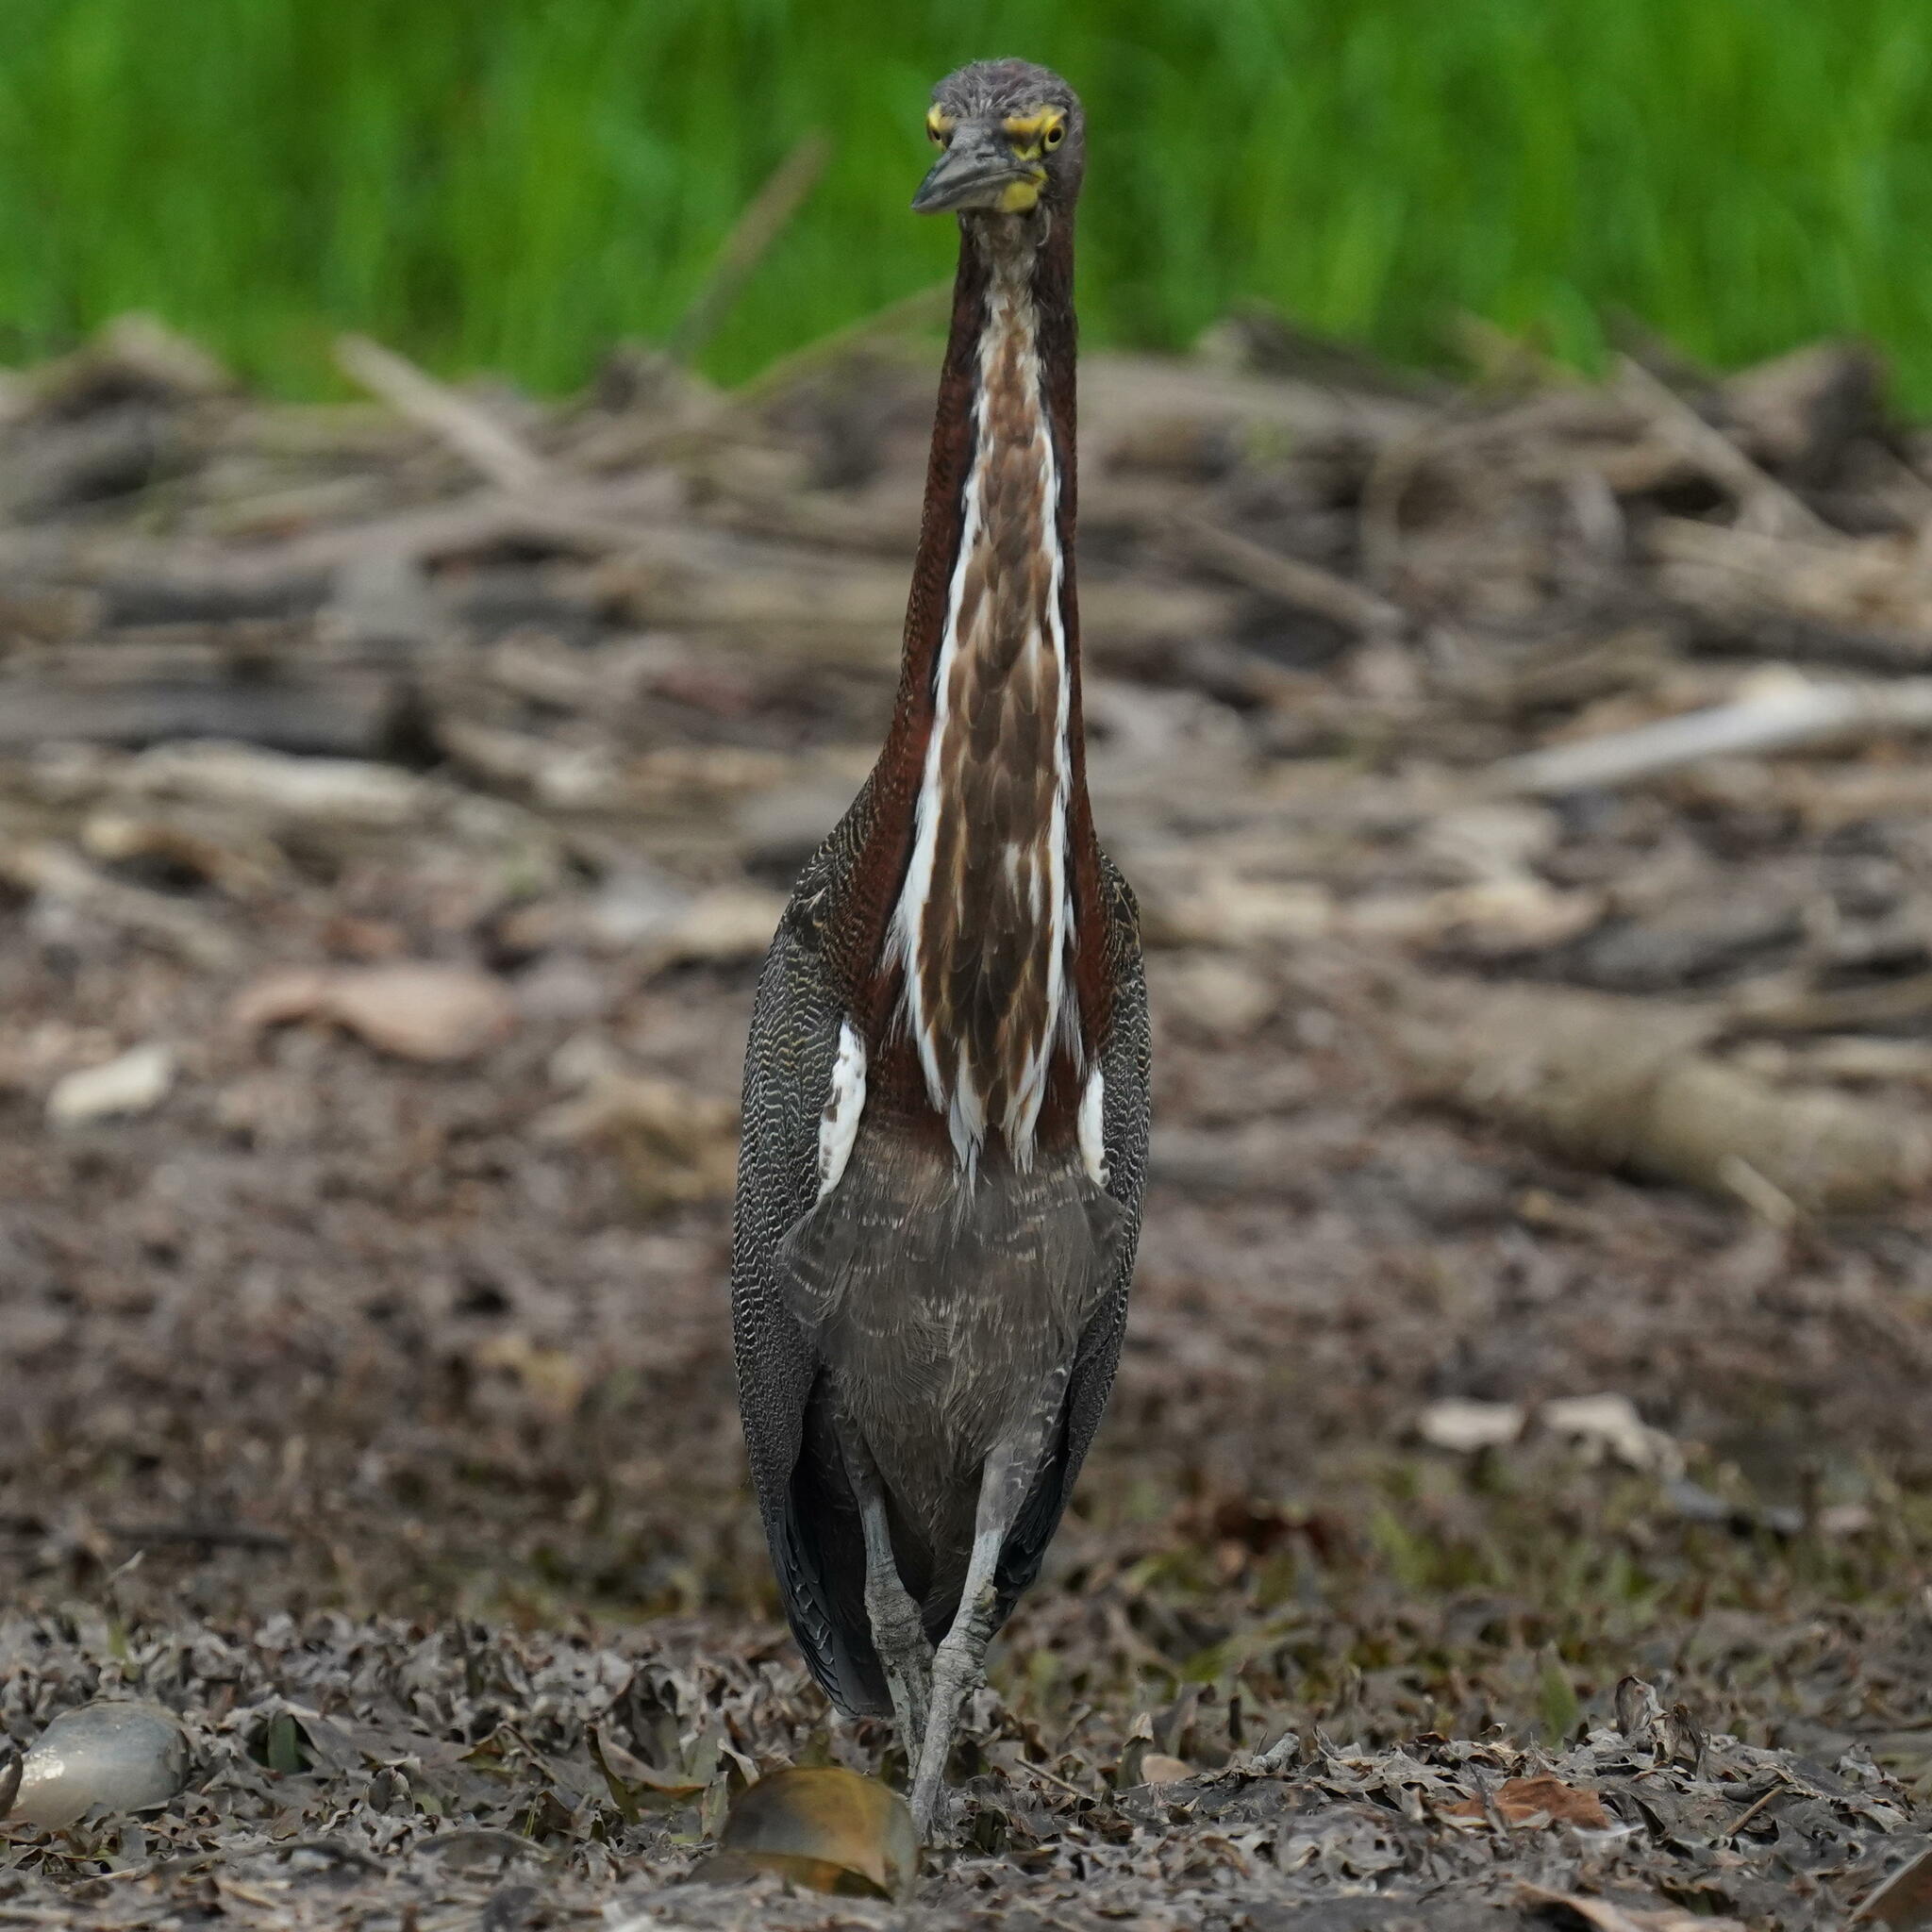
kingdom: Animalia
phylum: Chordata
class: Aves
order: Pelecaniformes
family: Ardeidae
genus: Tigrisoma
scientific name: Tigrisoma lineatum
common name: Rufescent tiger-heron
